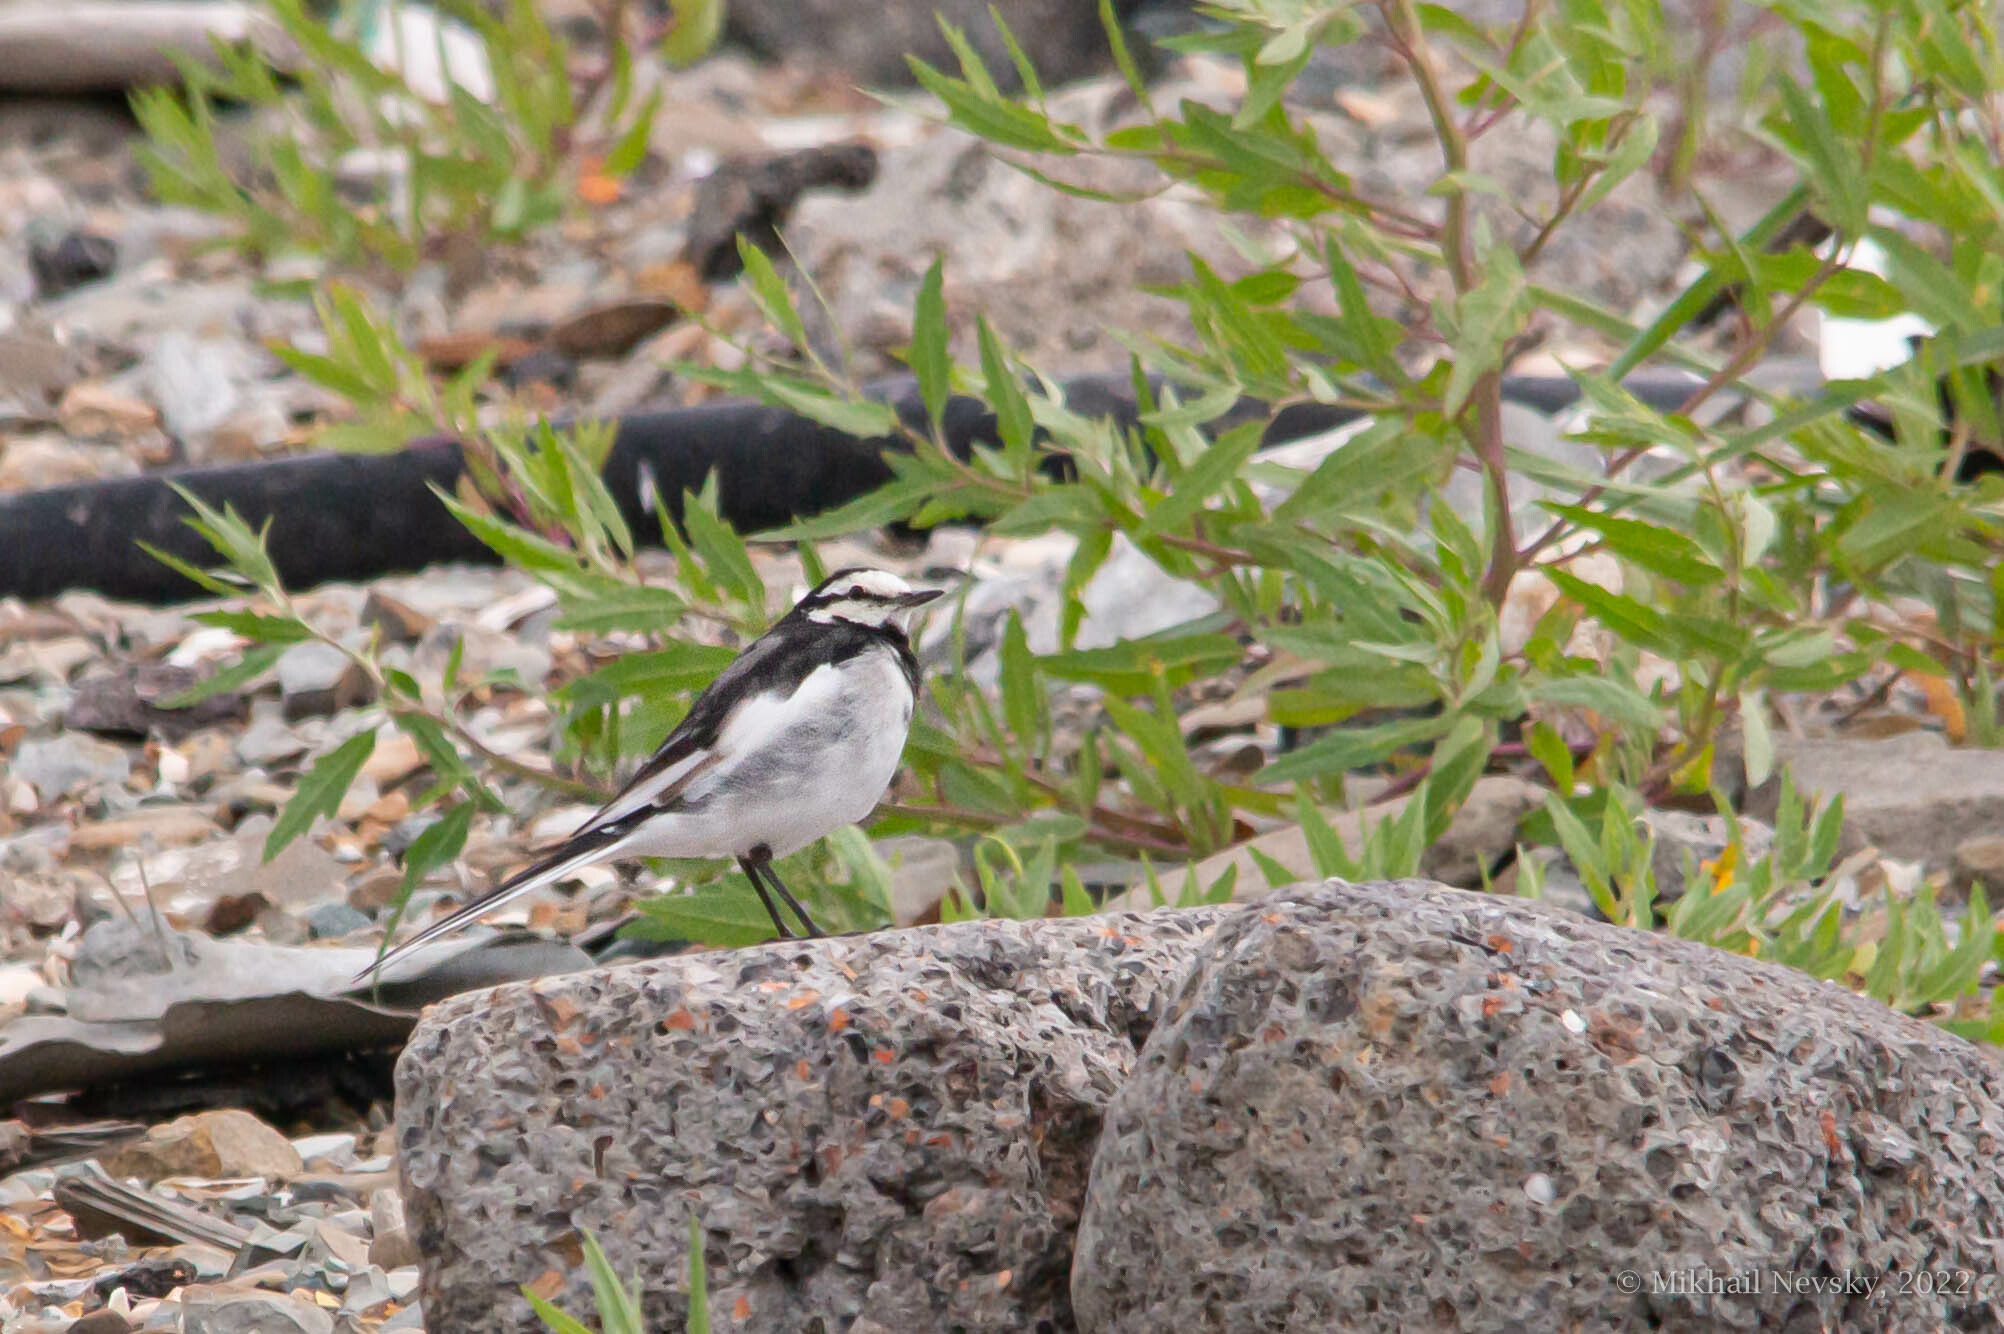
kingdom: Animalia
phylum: Chordata
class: Aves
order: Passeriformes
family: Motacillidae
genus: Motacilla
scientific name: Motacilla alba
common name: White wagtail
